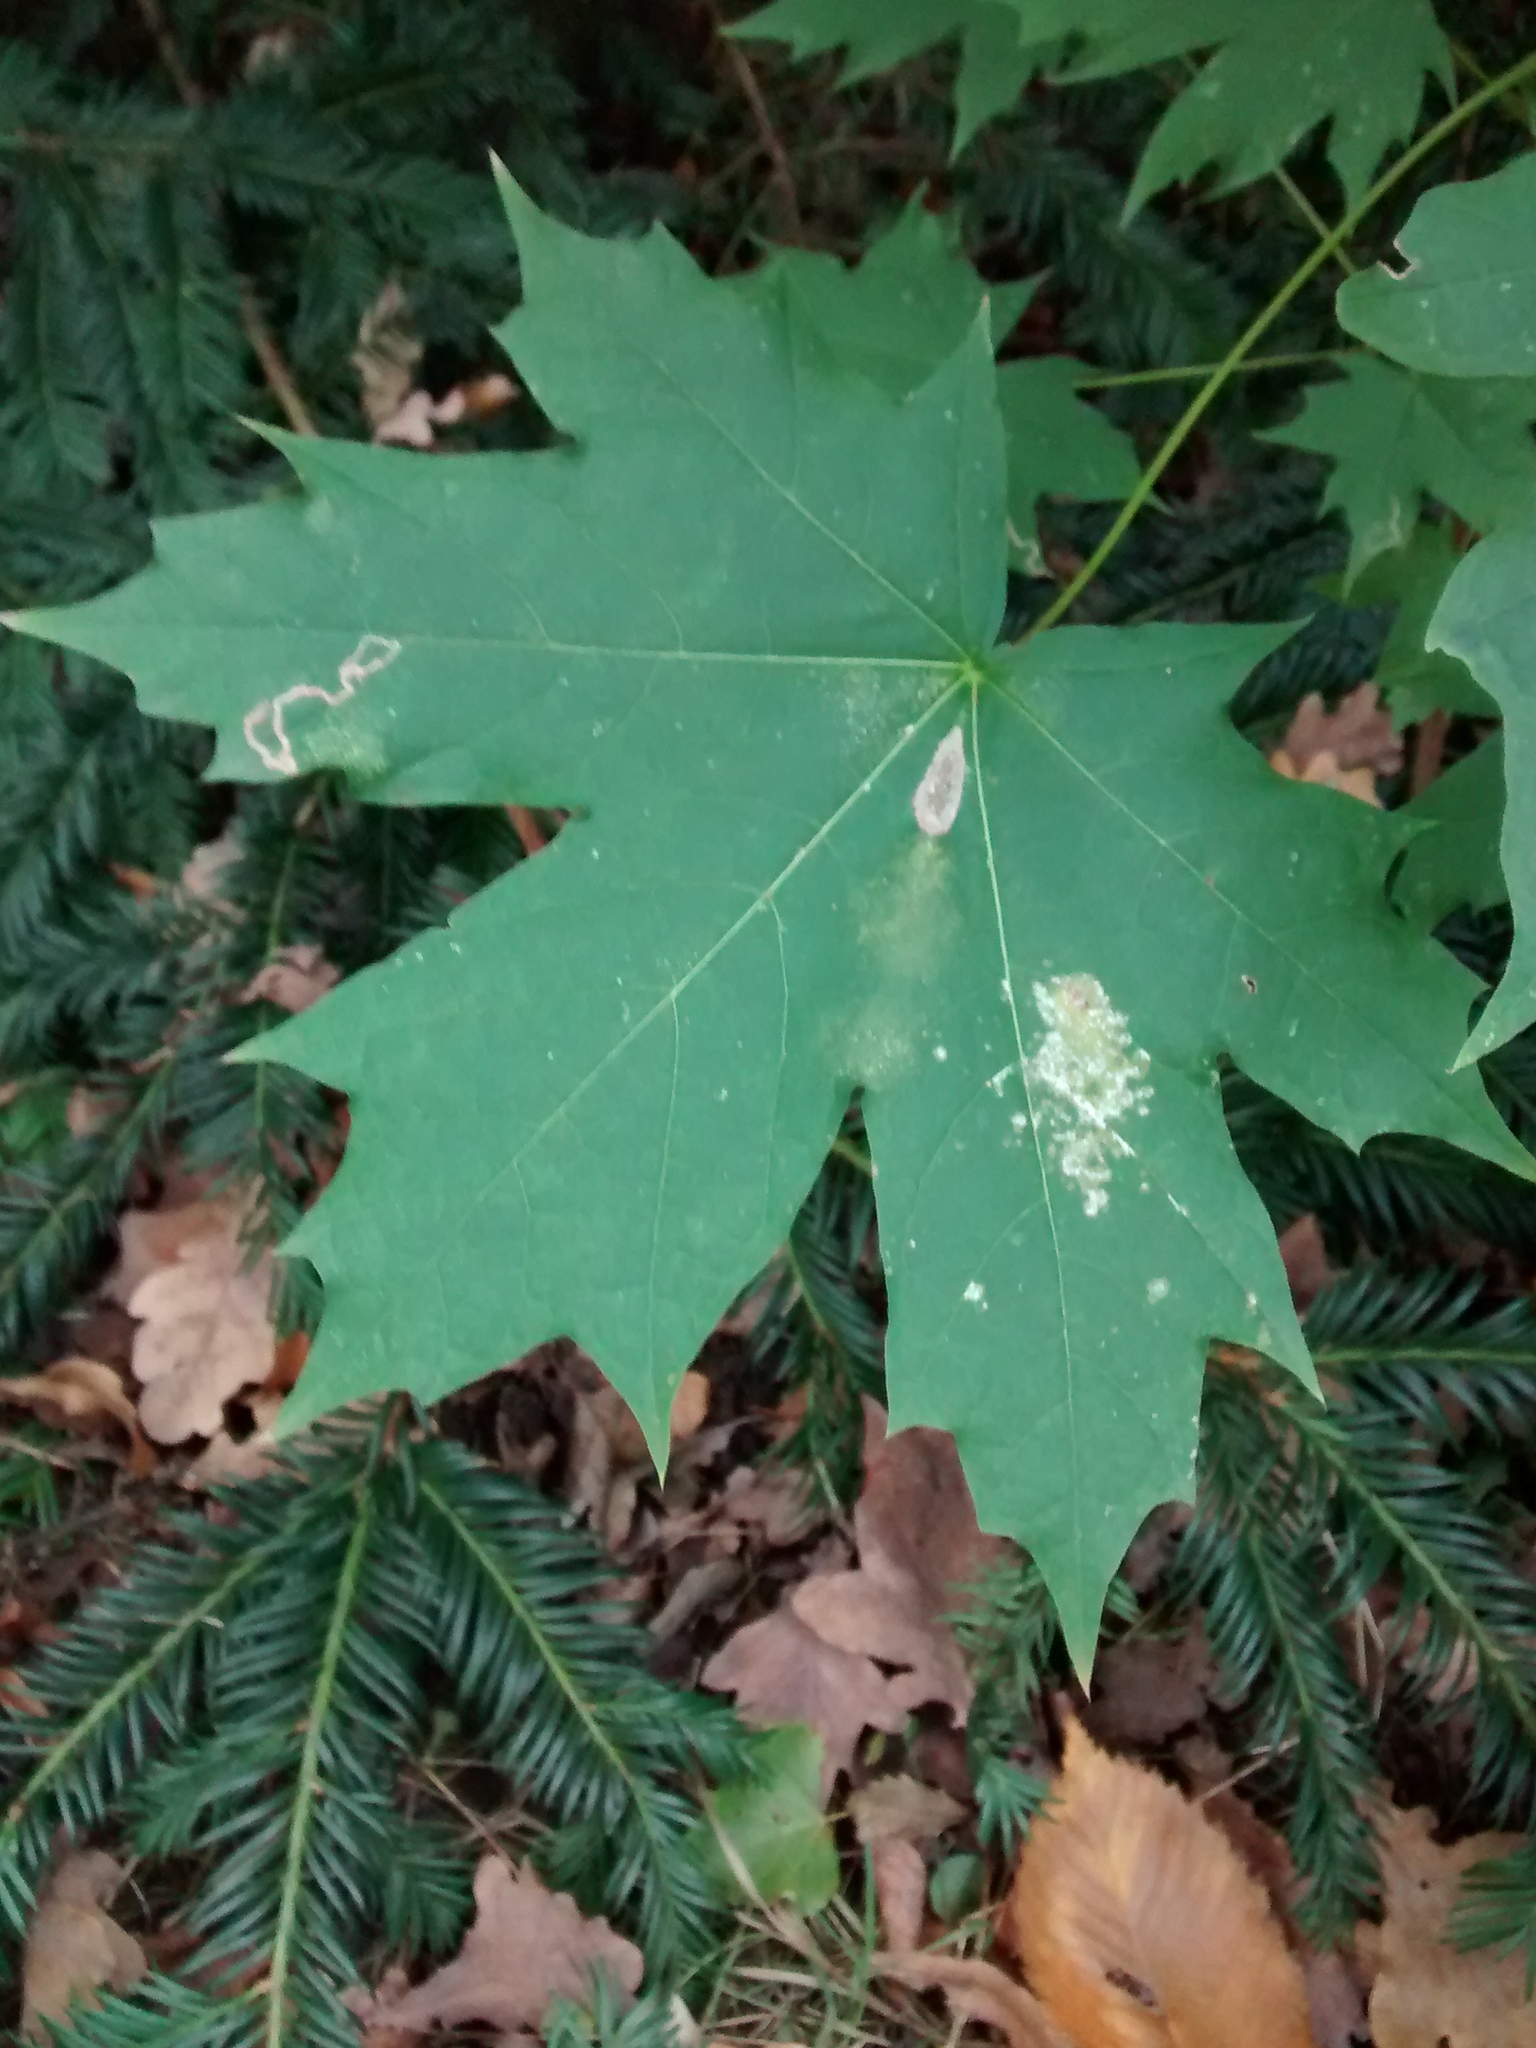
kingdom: Plantae
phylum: Tracheophyta
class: Magnoliopsida
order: Sapindales
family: Sapindaceae
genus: Acer
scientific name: Acer platanoides
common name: Norway maple
